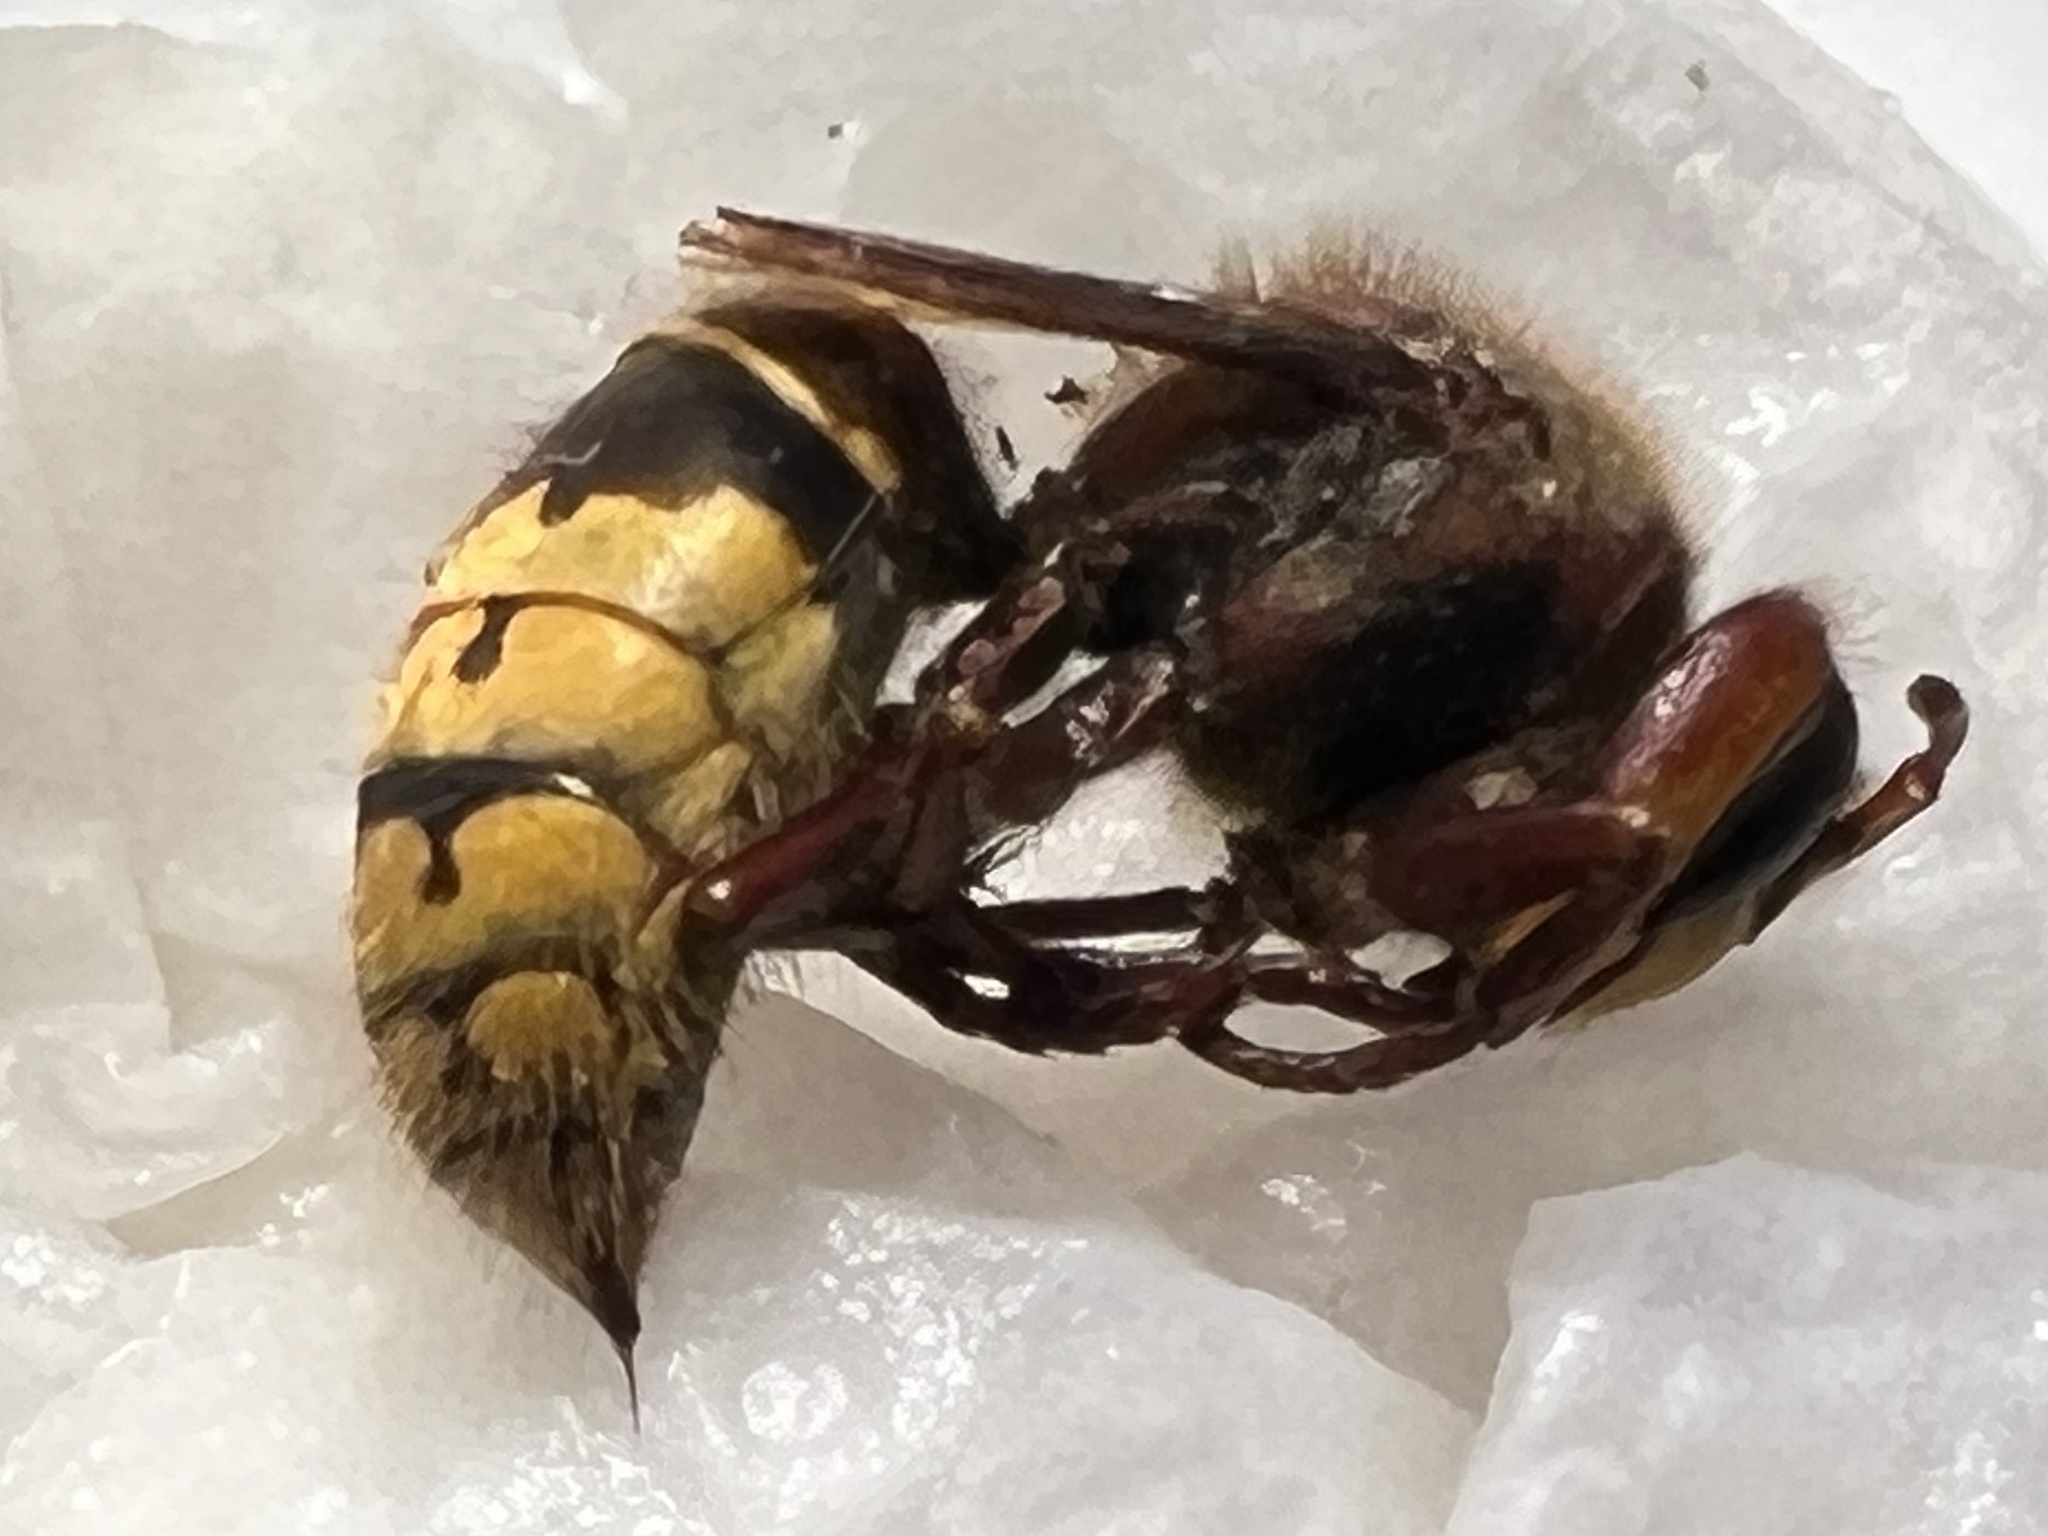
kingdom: Animalia
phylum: Arthropoda
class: Insecta
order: Hymenoptera
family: Vespidae
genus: Vespa
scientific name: Vespa crabro
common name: Hornet
